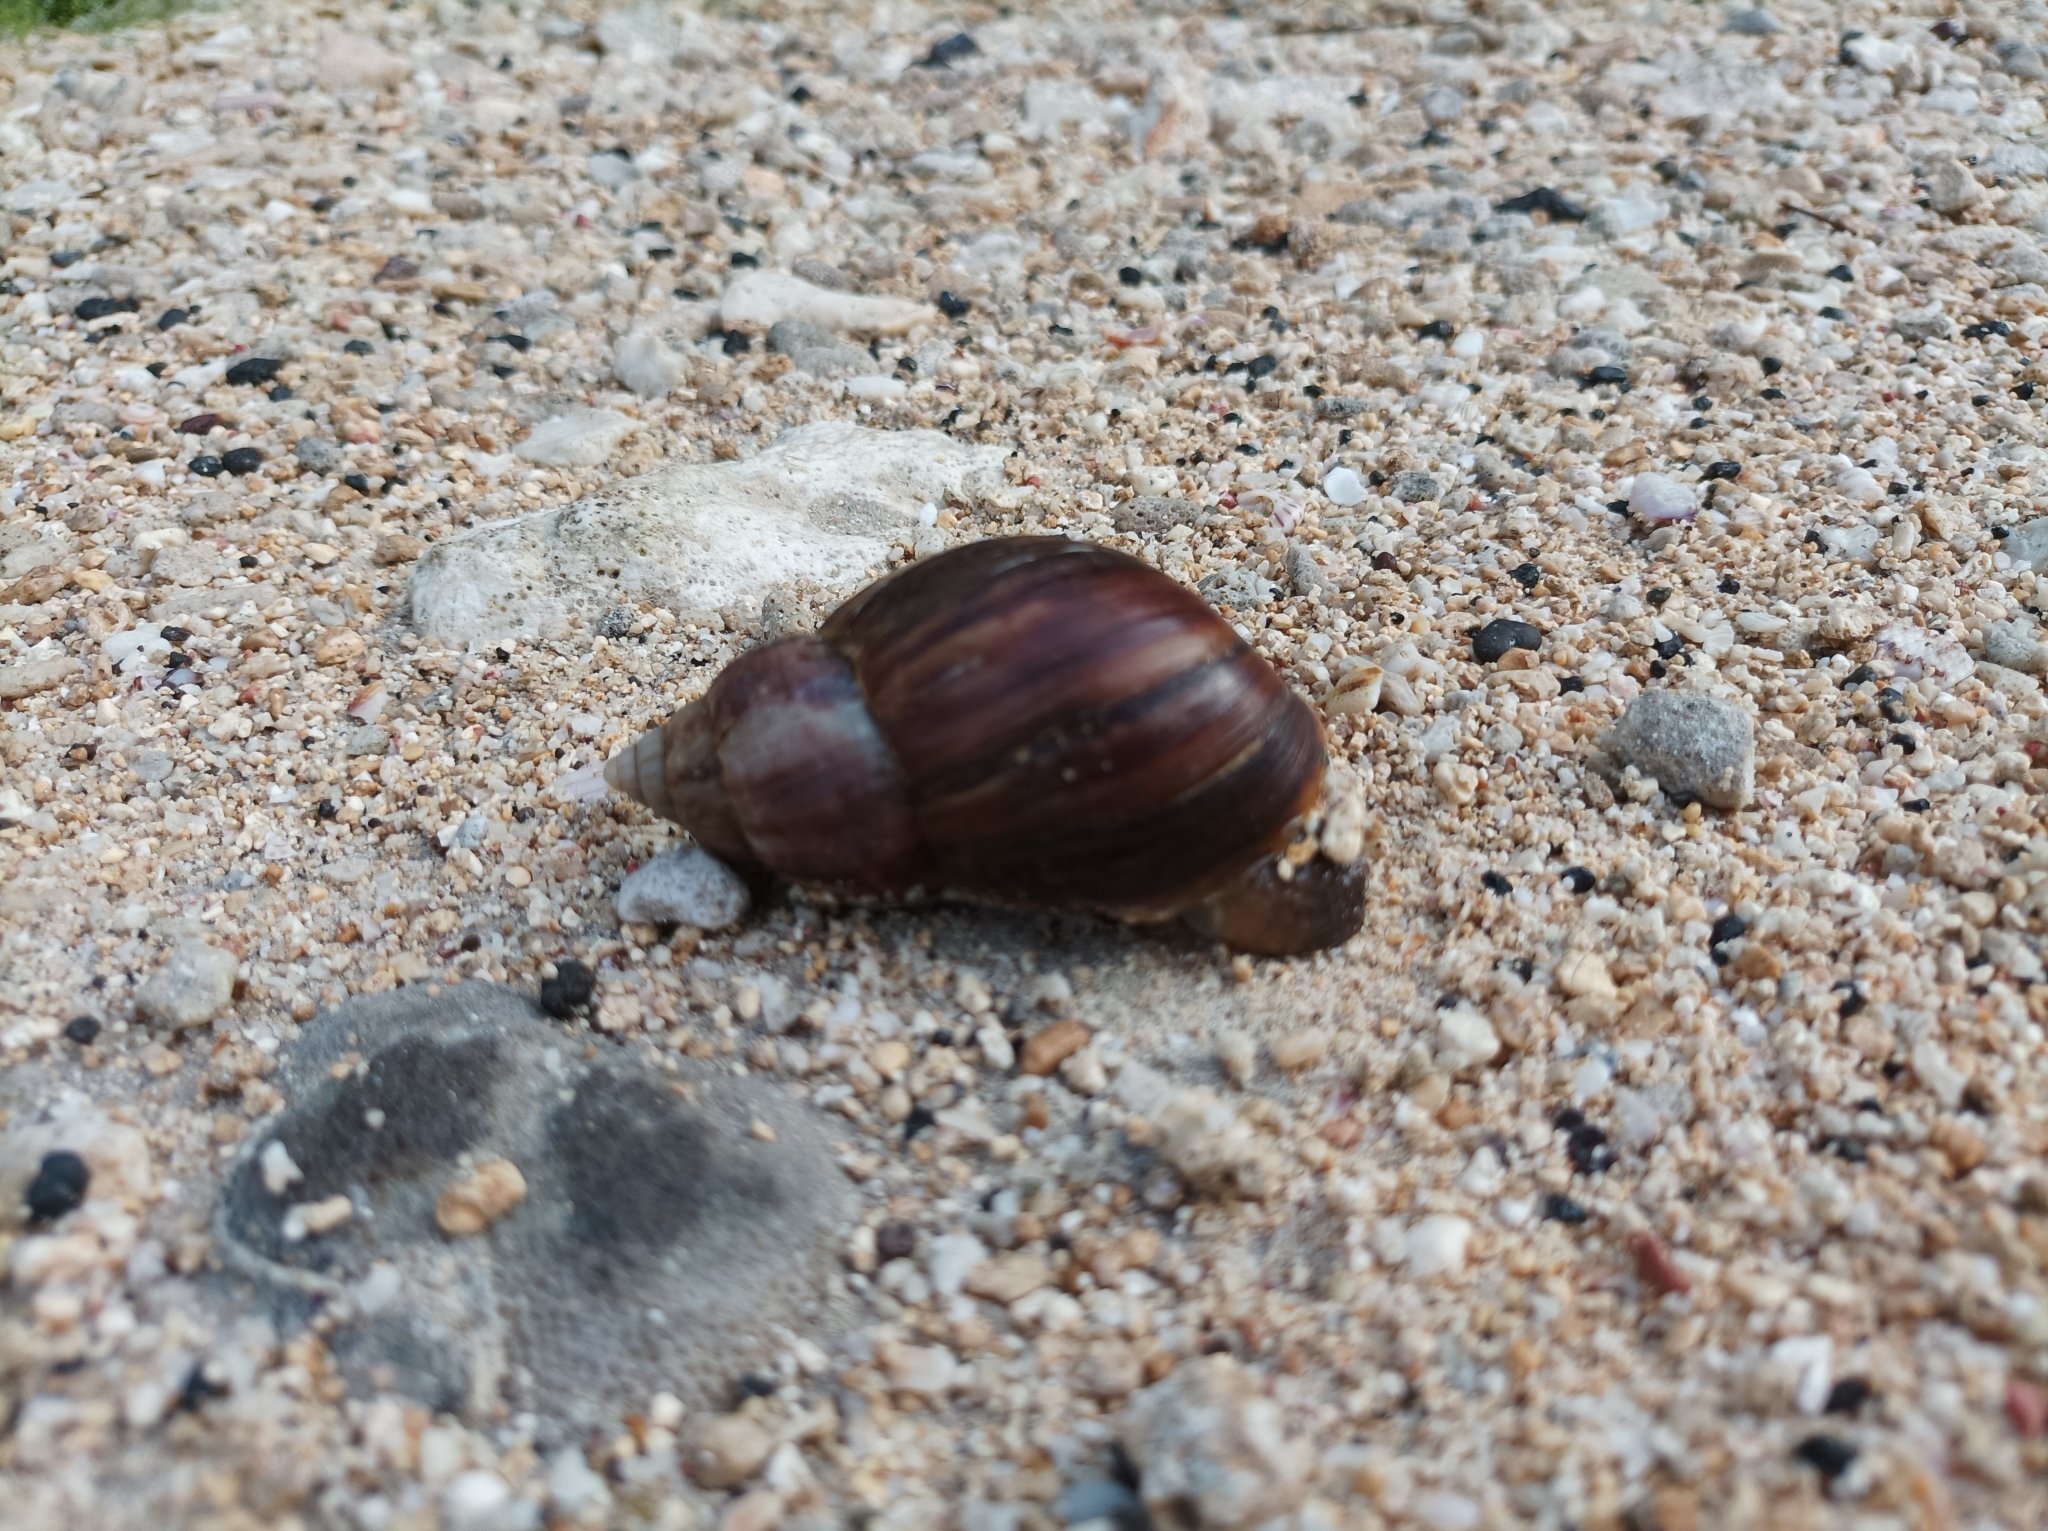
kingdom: Animalia
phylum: Mollusca
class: Gastropoda
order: Stylommatophora
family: Achatinidae
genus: Lissachatina
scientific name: Lissachatina fulica
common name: Giant african snail
